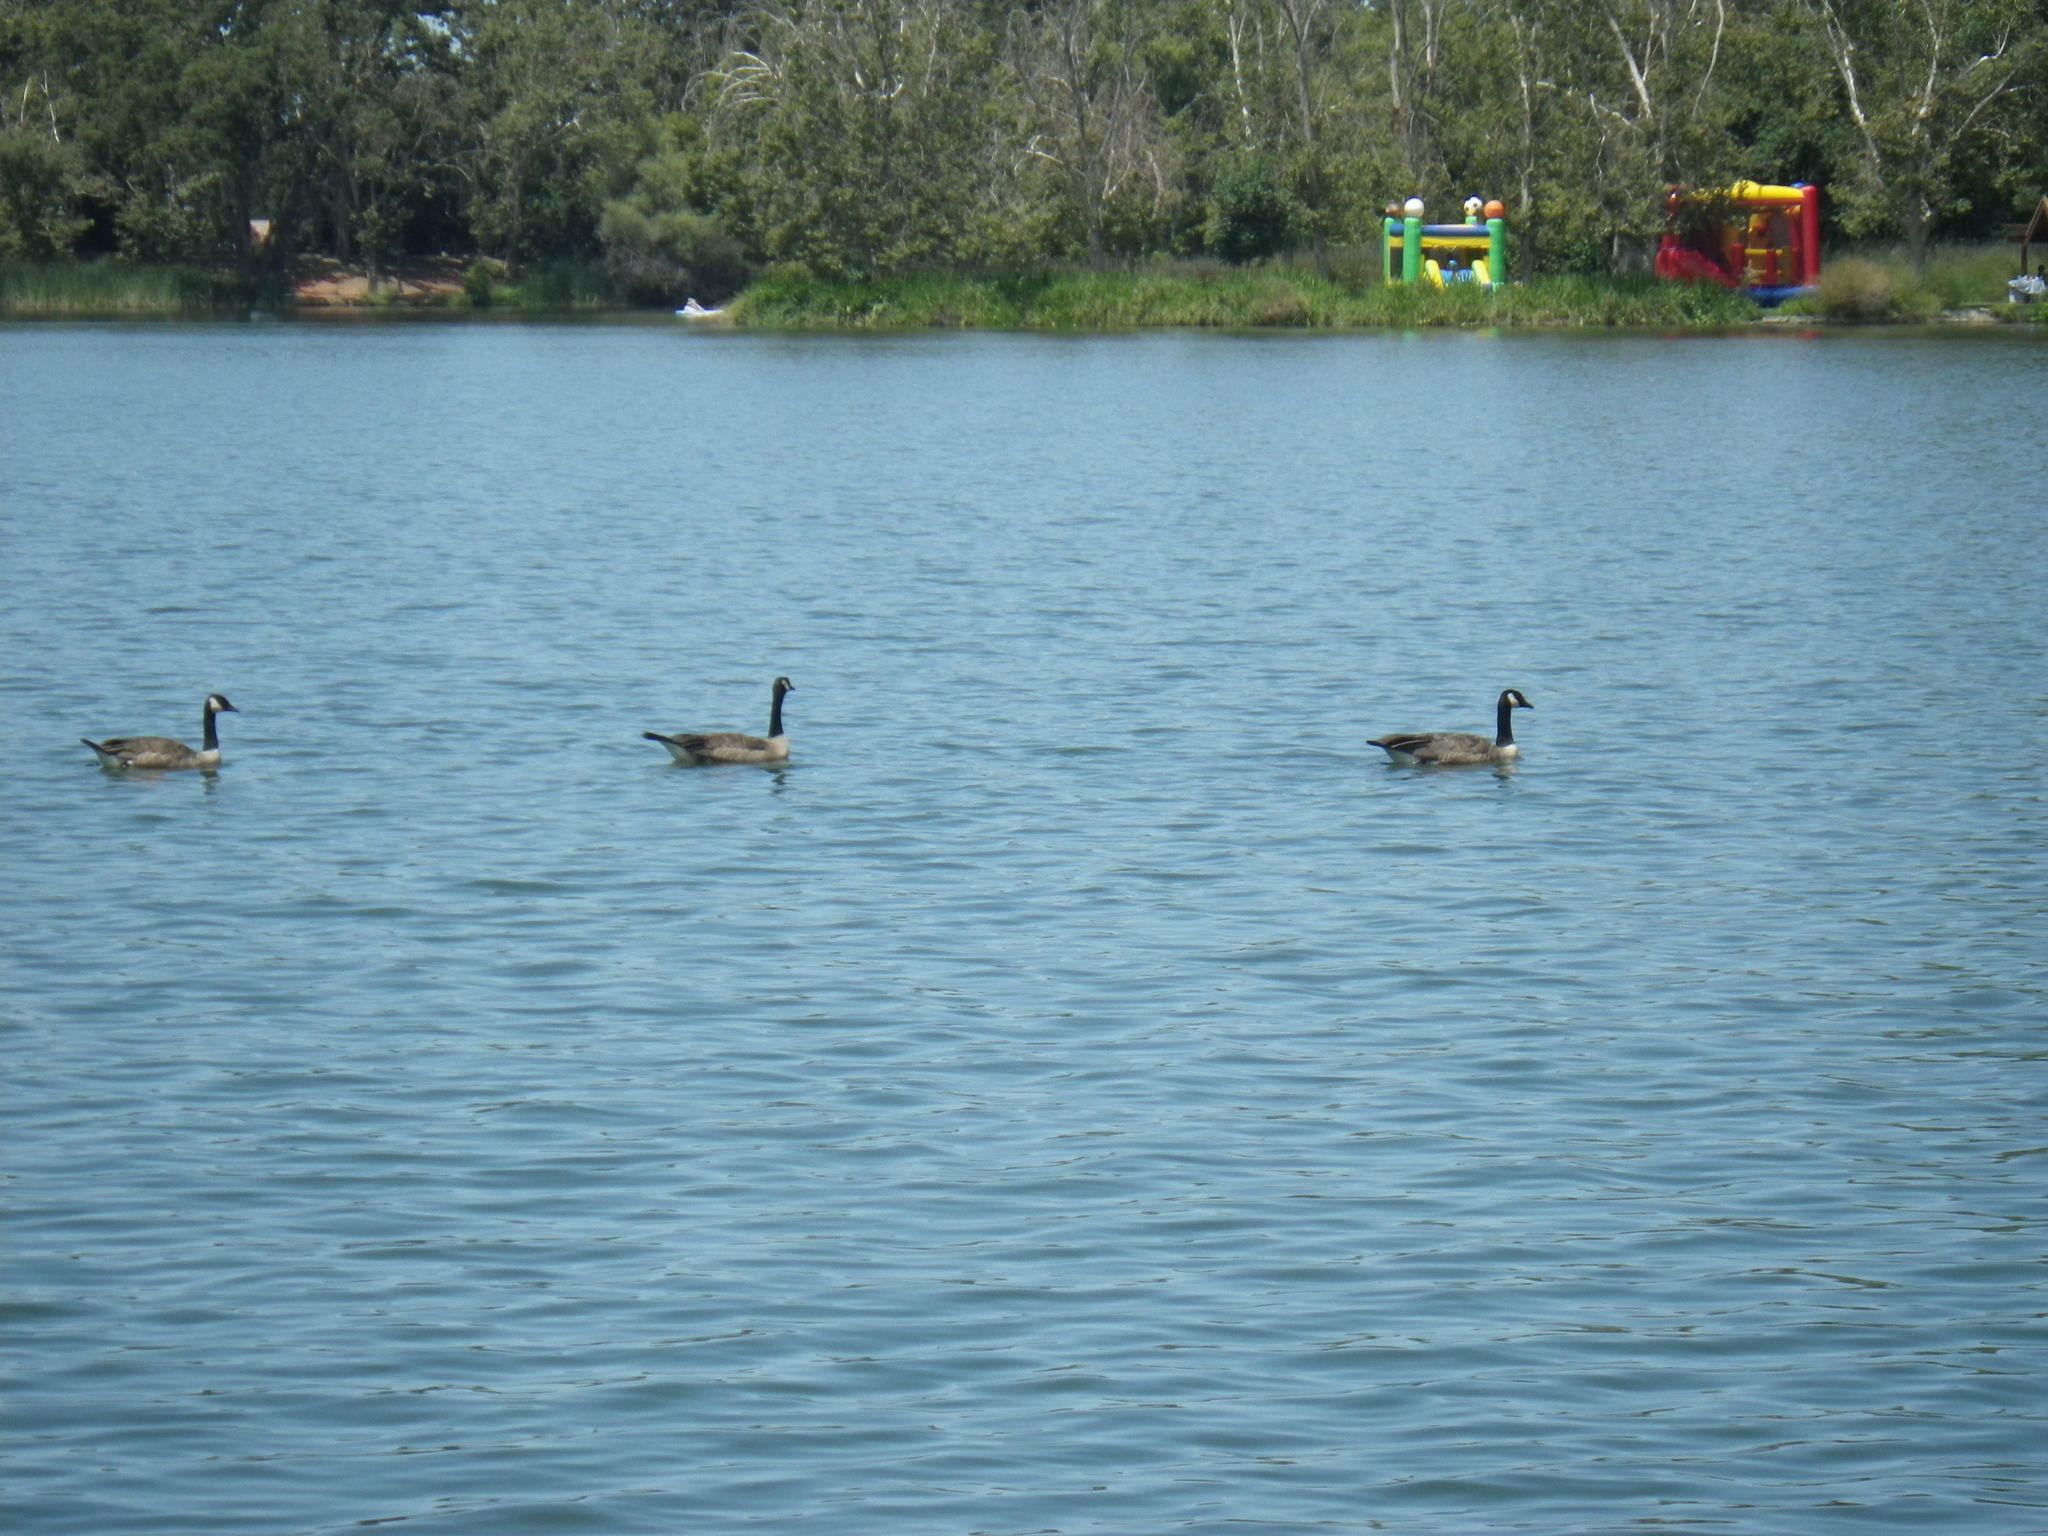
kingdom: Animalia
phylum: Chordata
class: Aves
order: Anseriformes
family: Anatidae
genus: Branta
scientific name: Branta canadensis
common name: Canada goose
